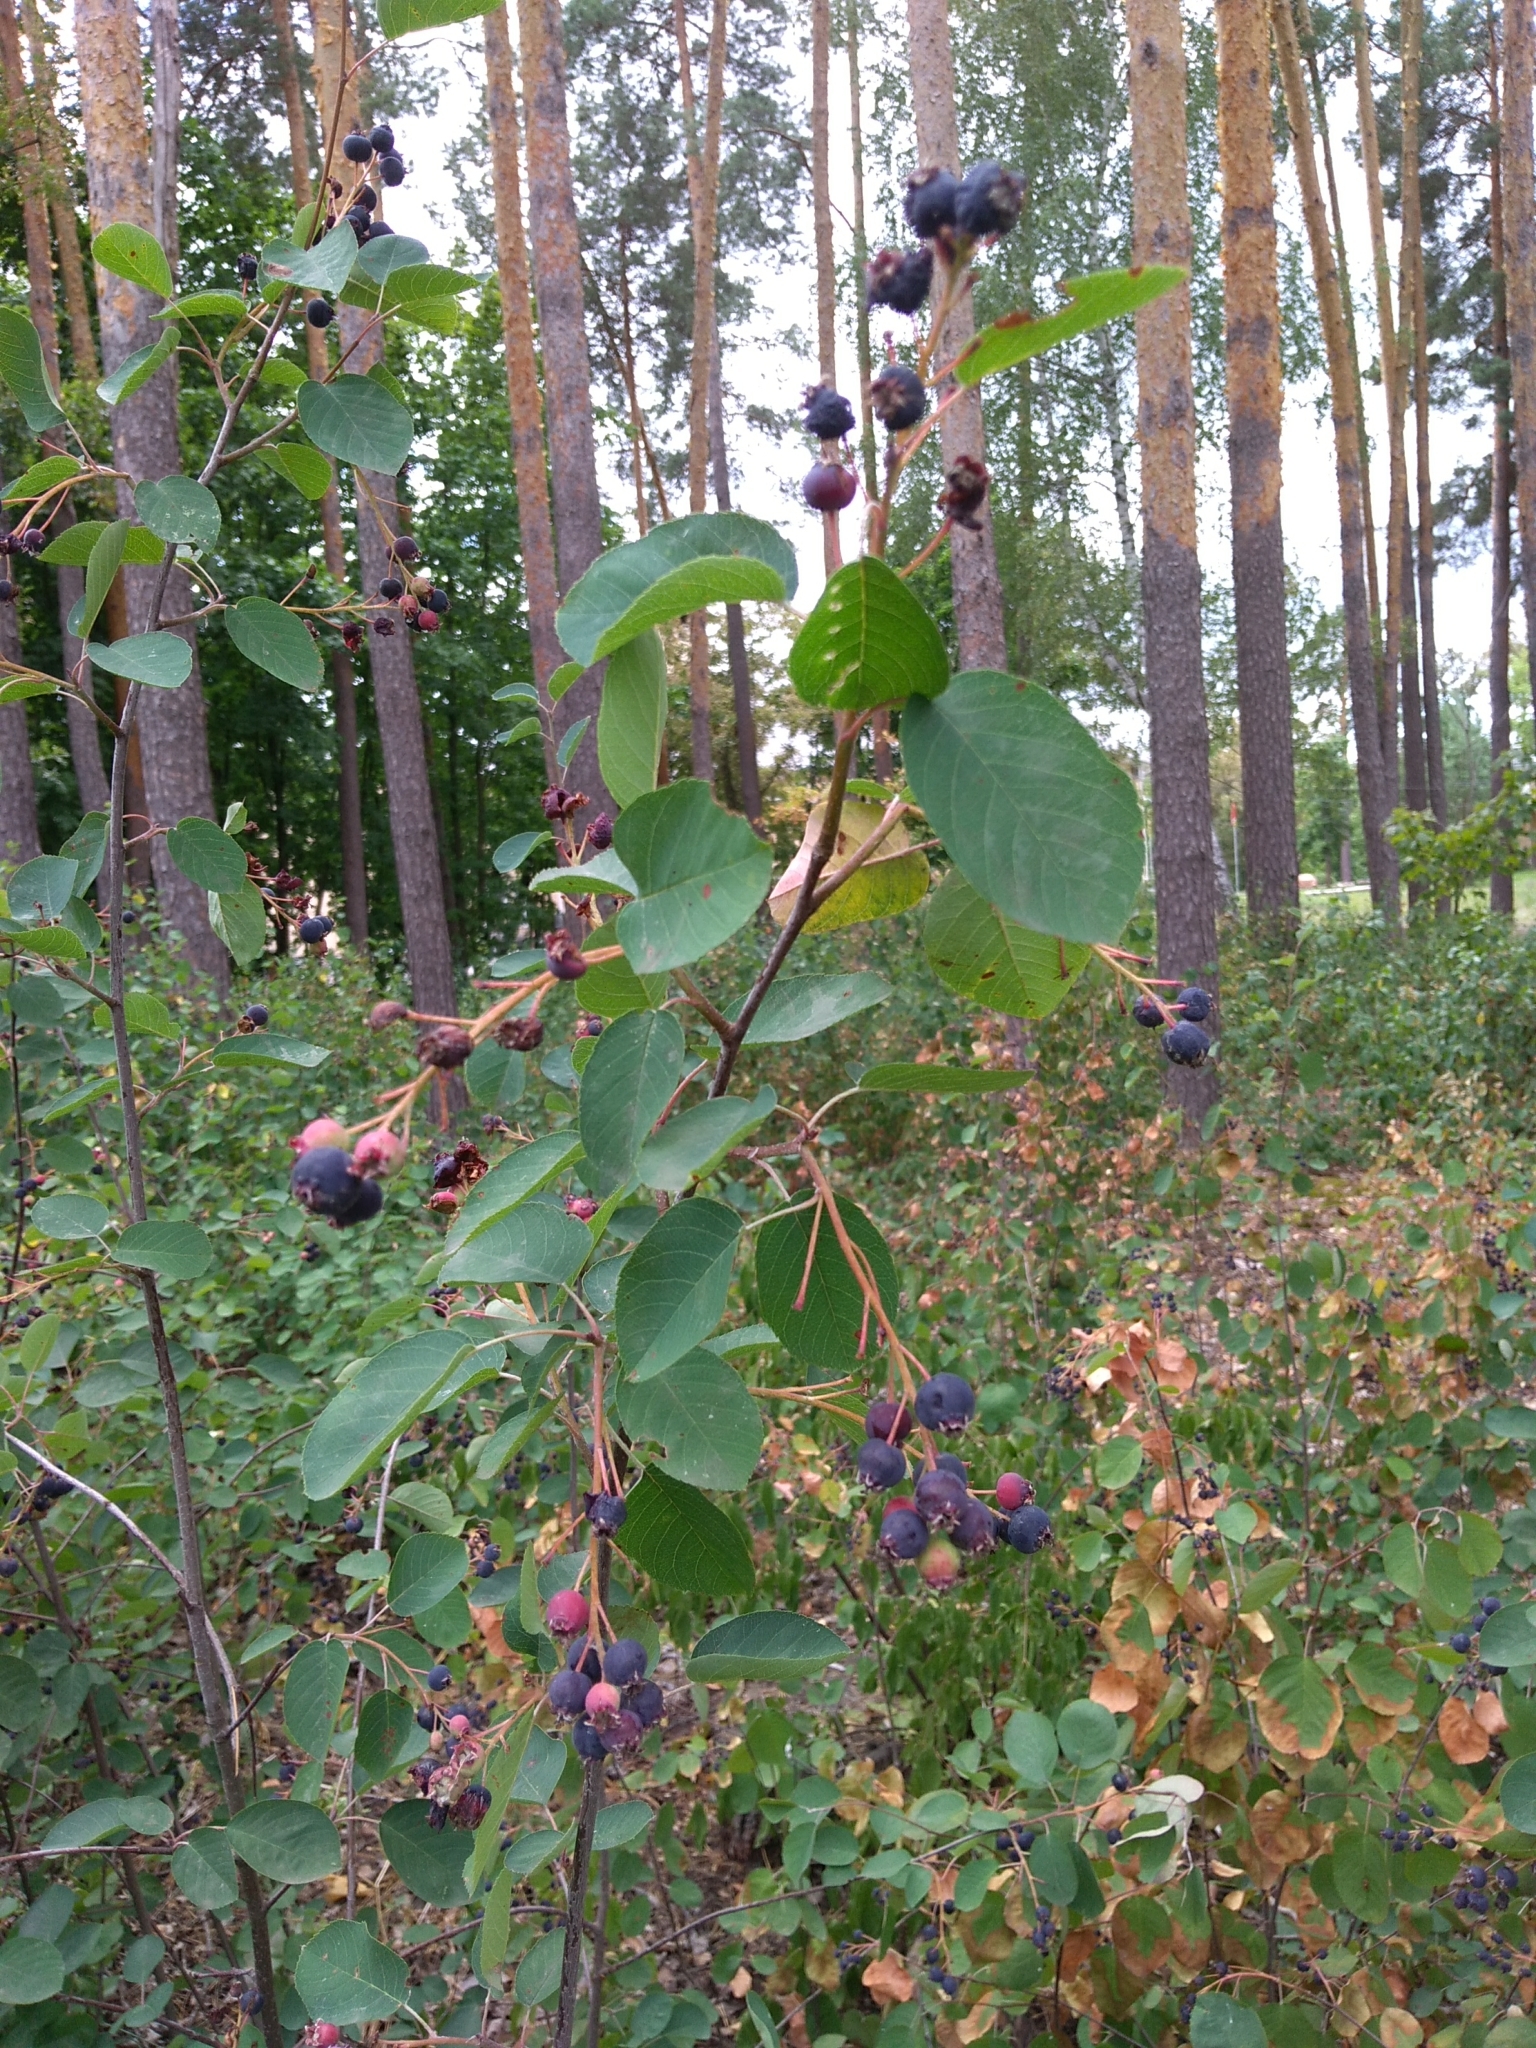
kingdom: Plantae
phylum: Tracheophyta
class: Magnoliopsida
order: Rosales
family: Rosaceae
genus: Amelanchier
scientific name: Amelanchier
